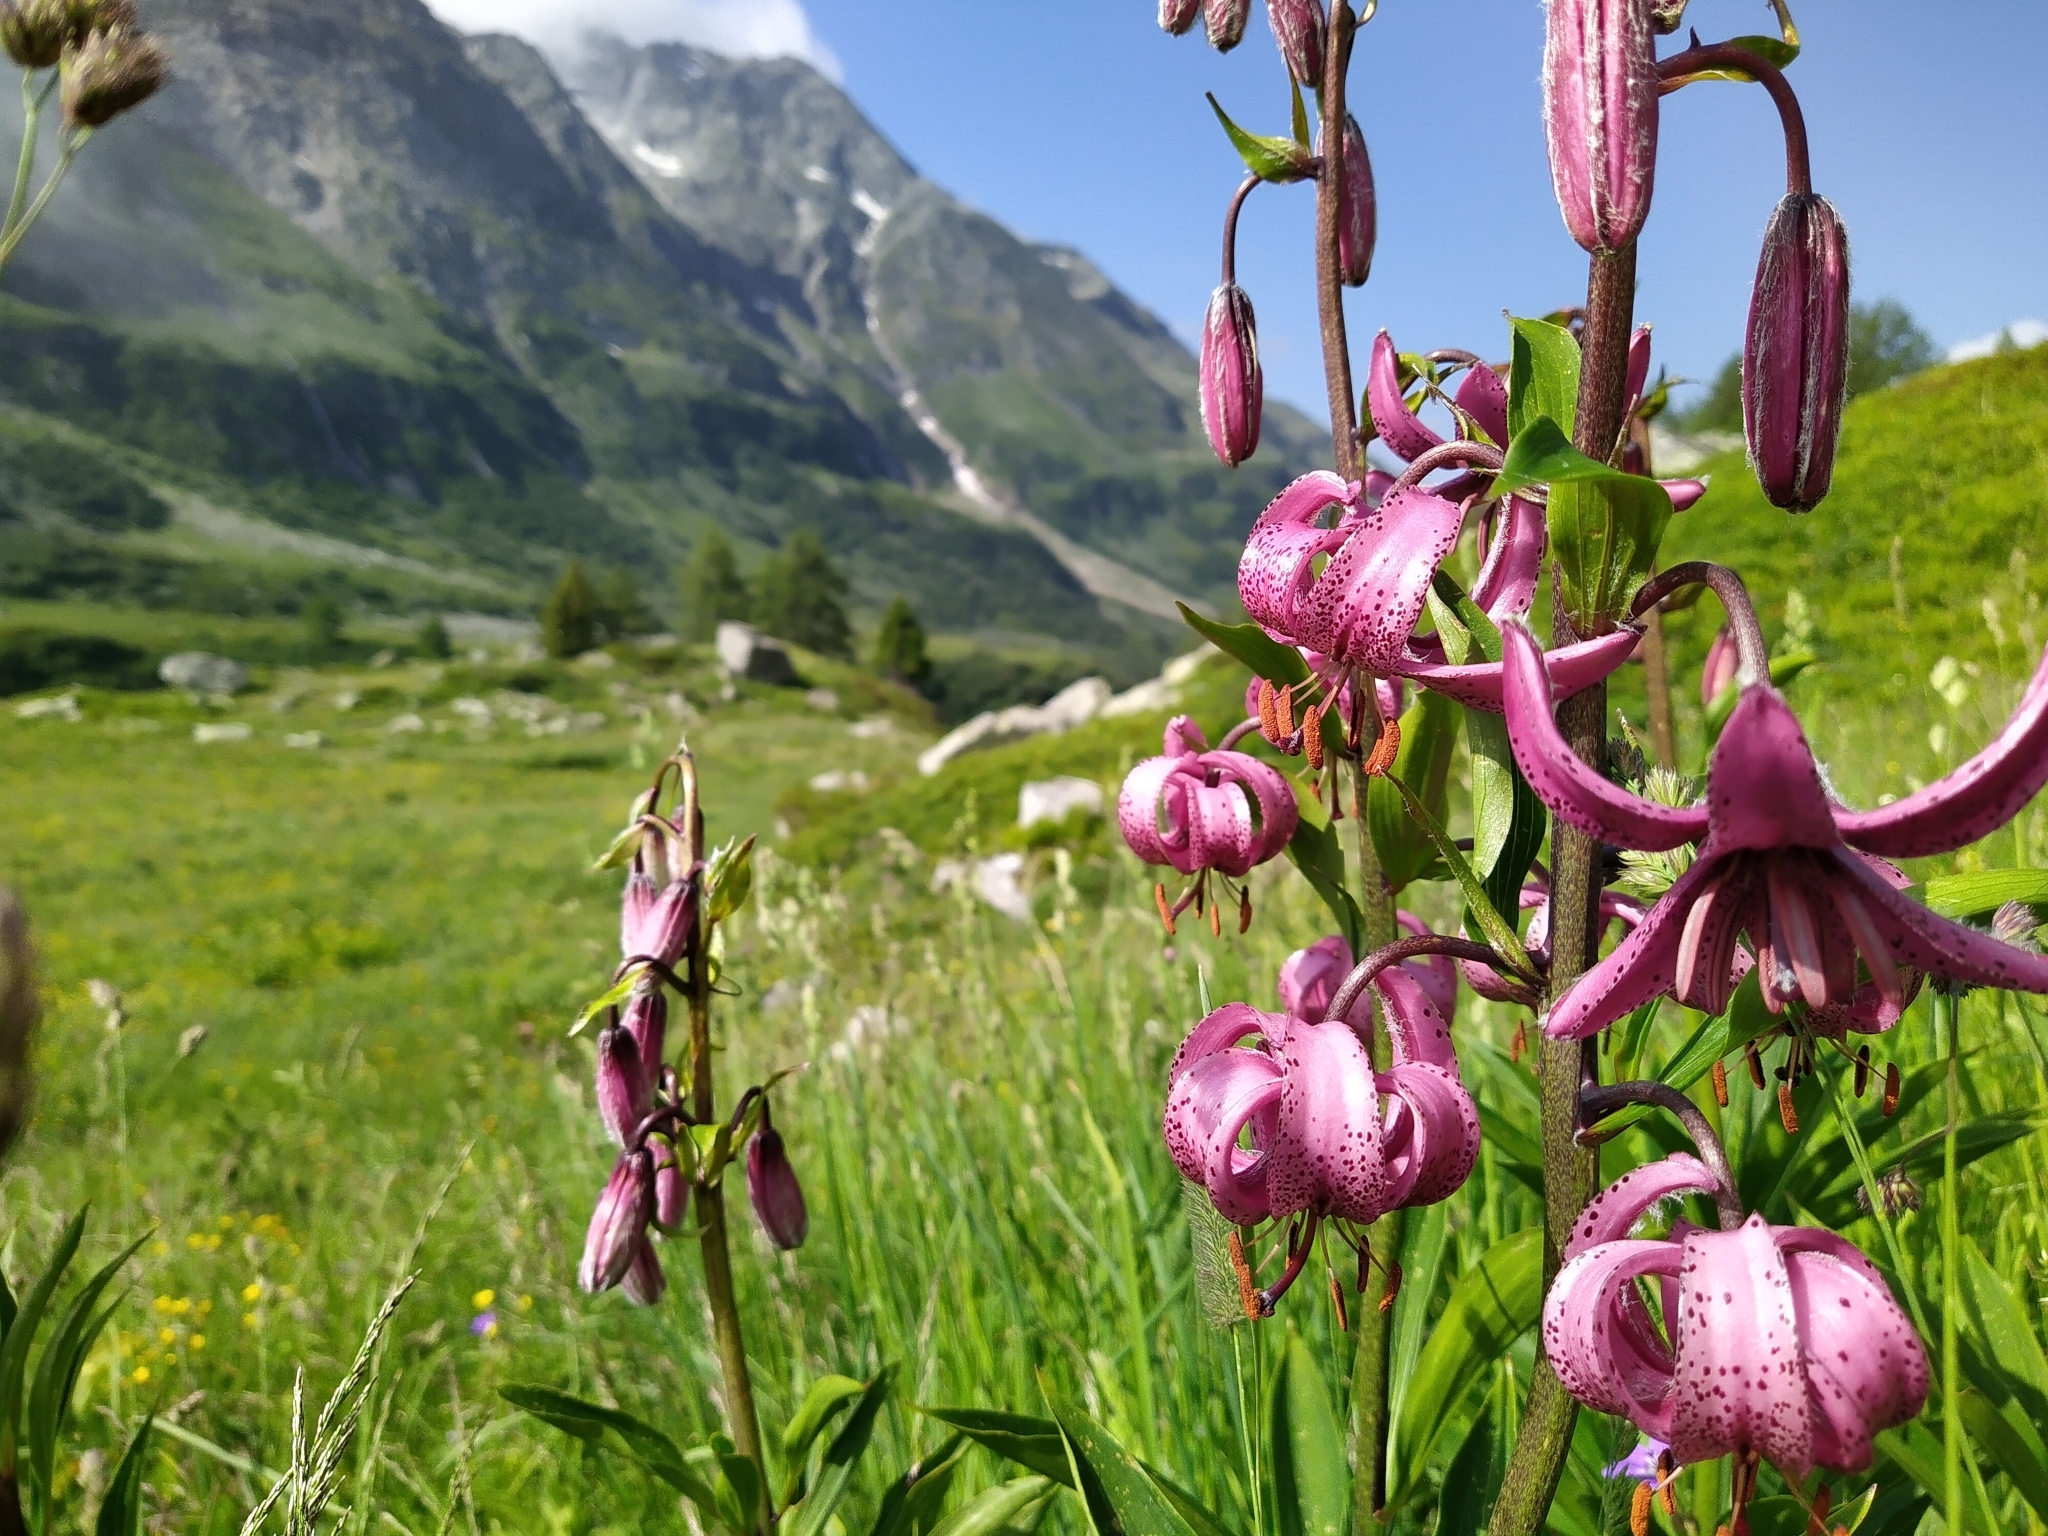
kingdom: Plantae
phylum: Tracheophyta
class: Liliopsida
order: Liliales
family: Liliaceae
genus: Lilium
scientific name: Lilium martagon
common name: Martagon lily
